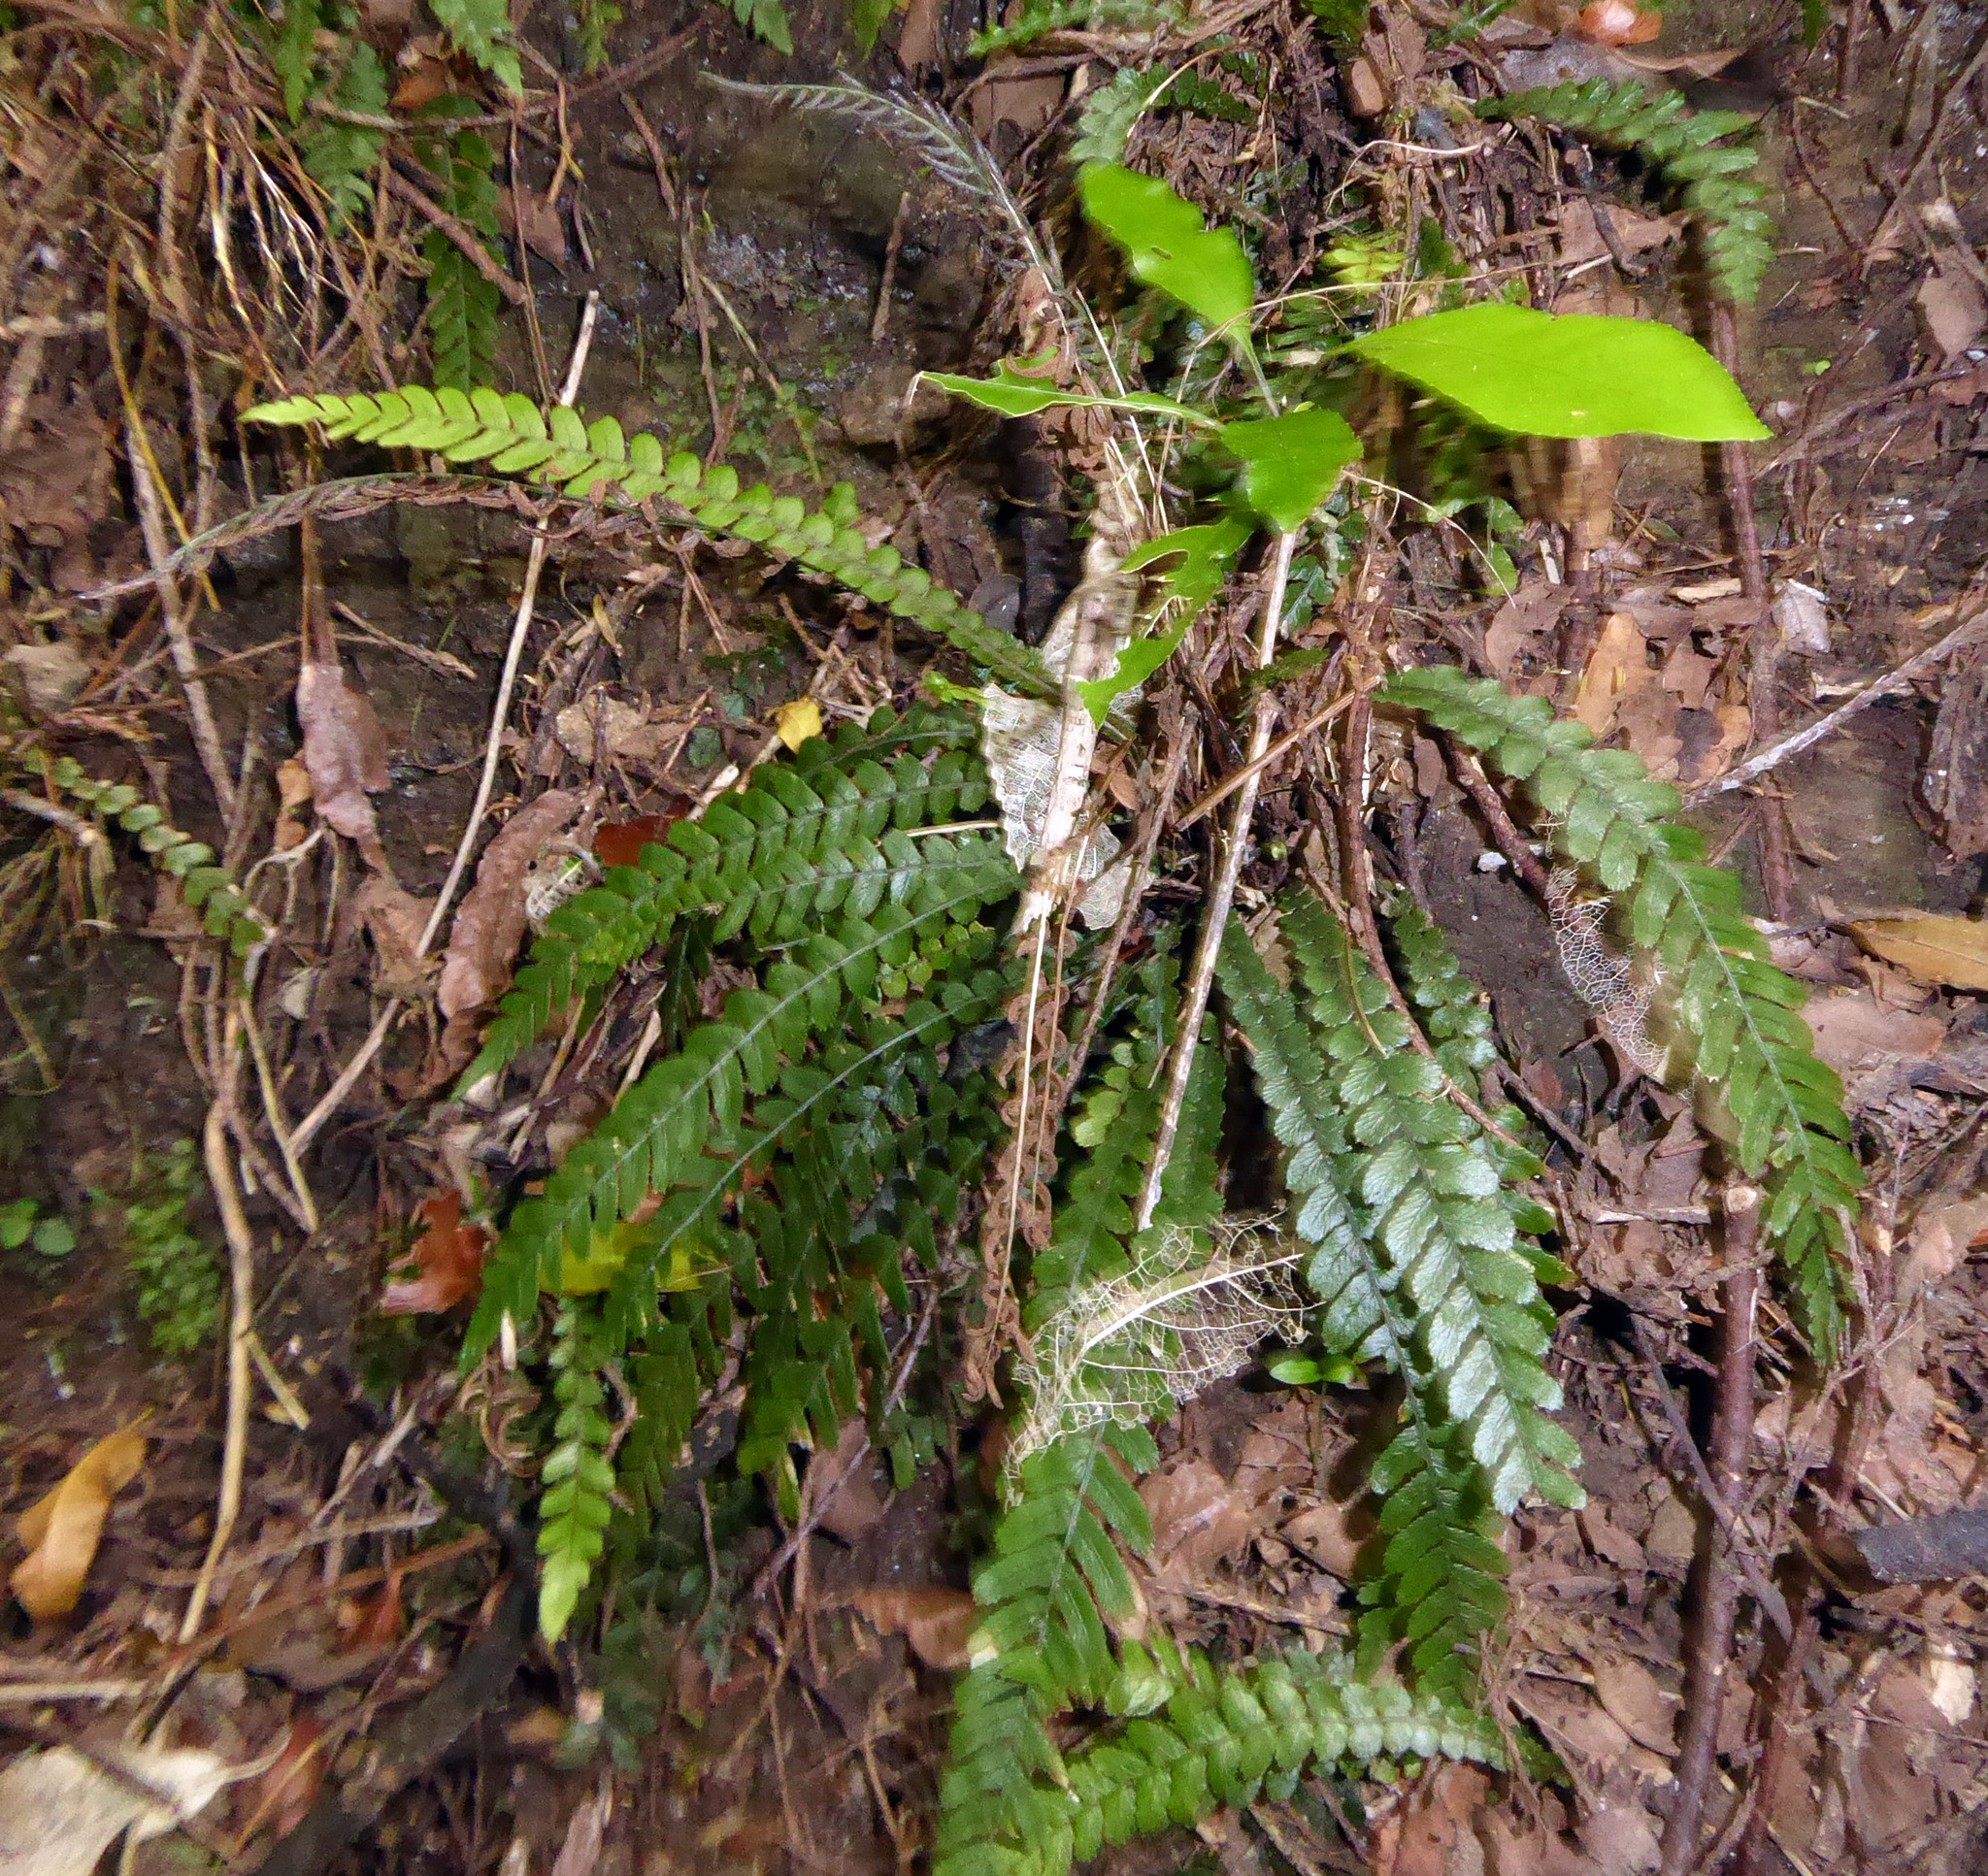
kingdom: Plantae
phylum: Tracheophyta
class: Polypodiopsida
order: Polypodiales
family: Blechnaceae
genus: Austroblechnum
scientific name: Austroblechnum membranaceum
